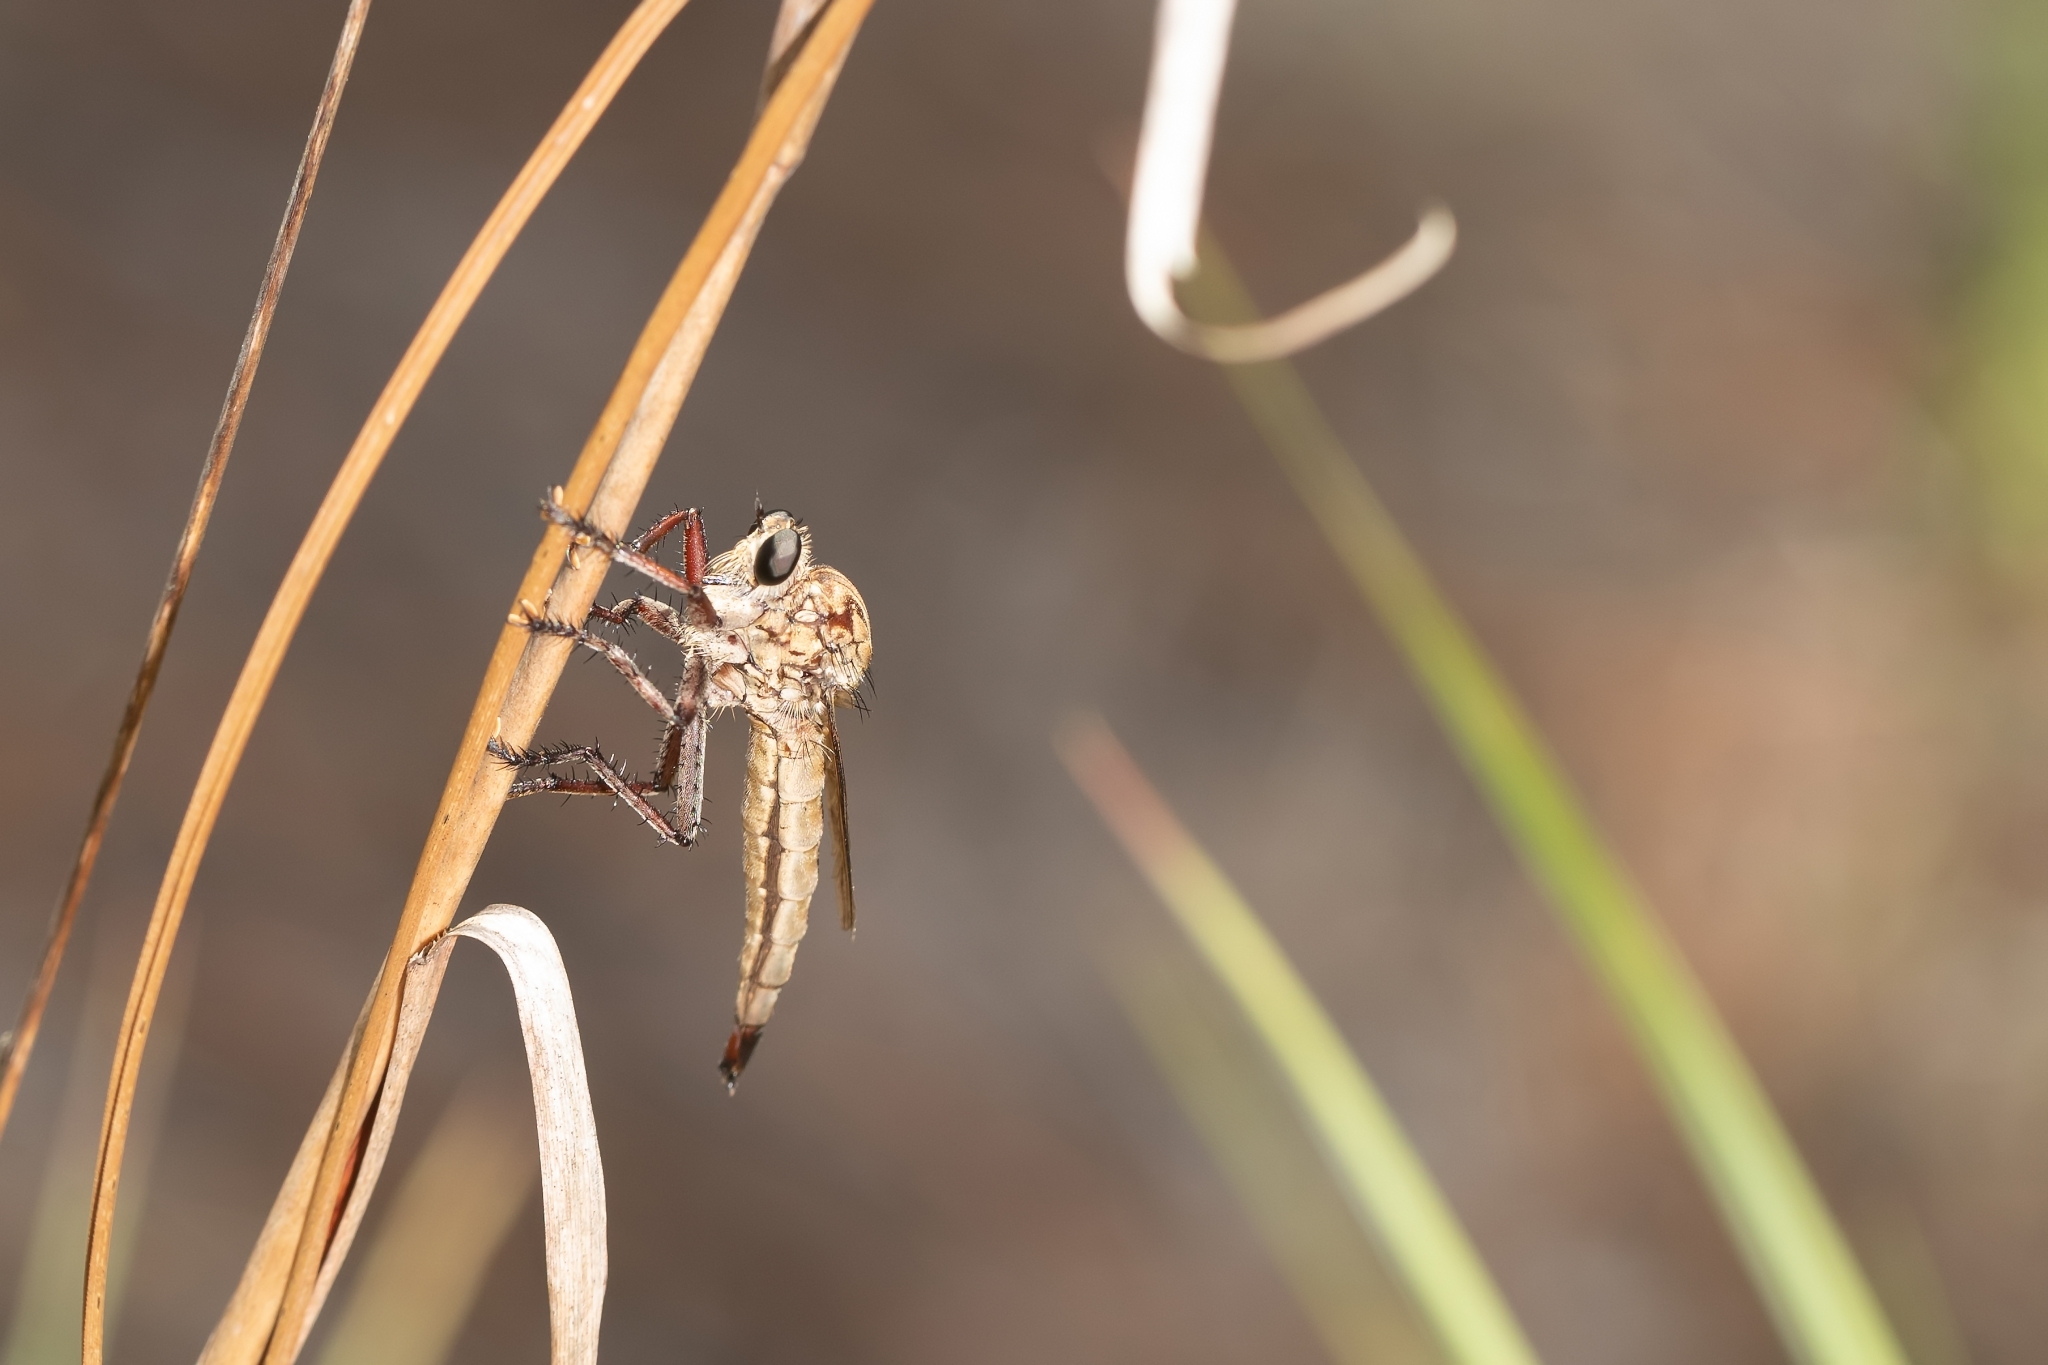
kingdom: Animalia
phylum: Arthropoda
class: Insecta
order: Diptera
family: Asilidae
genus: Proctacanthus
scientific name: Proctacanthus gracilis
